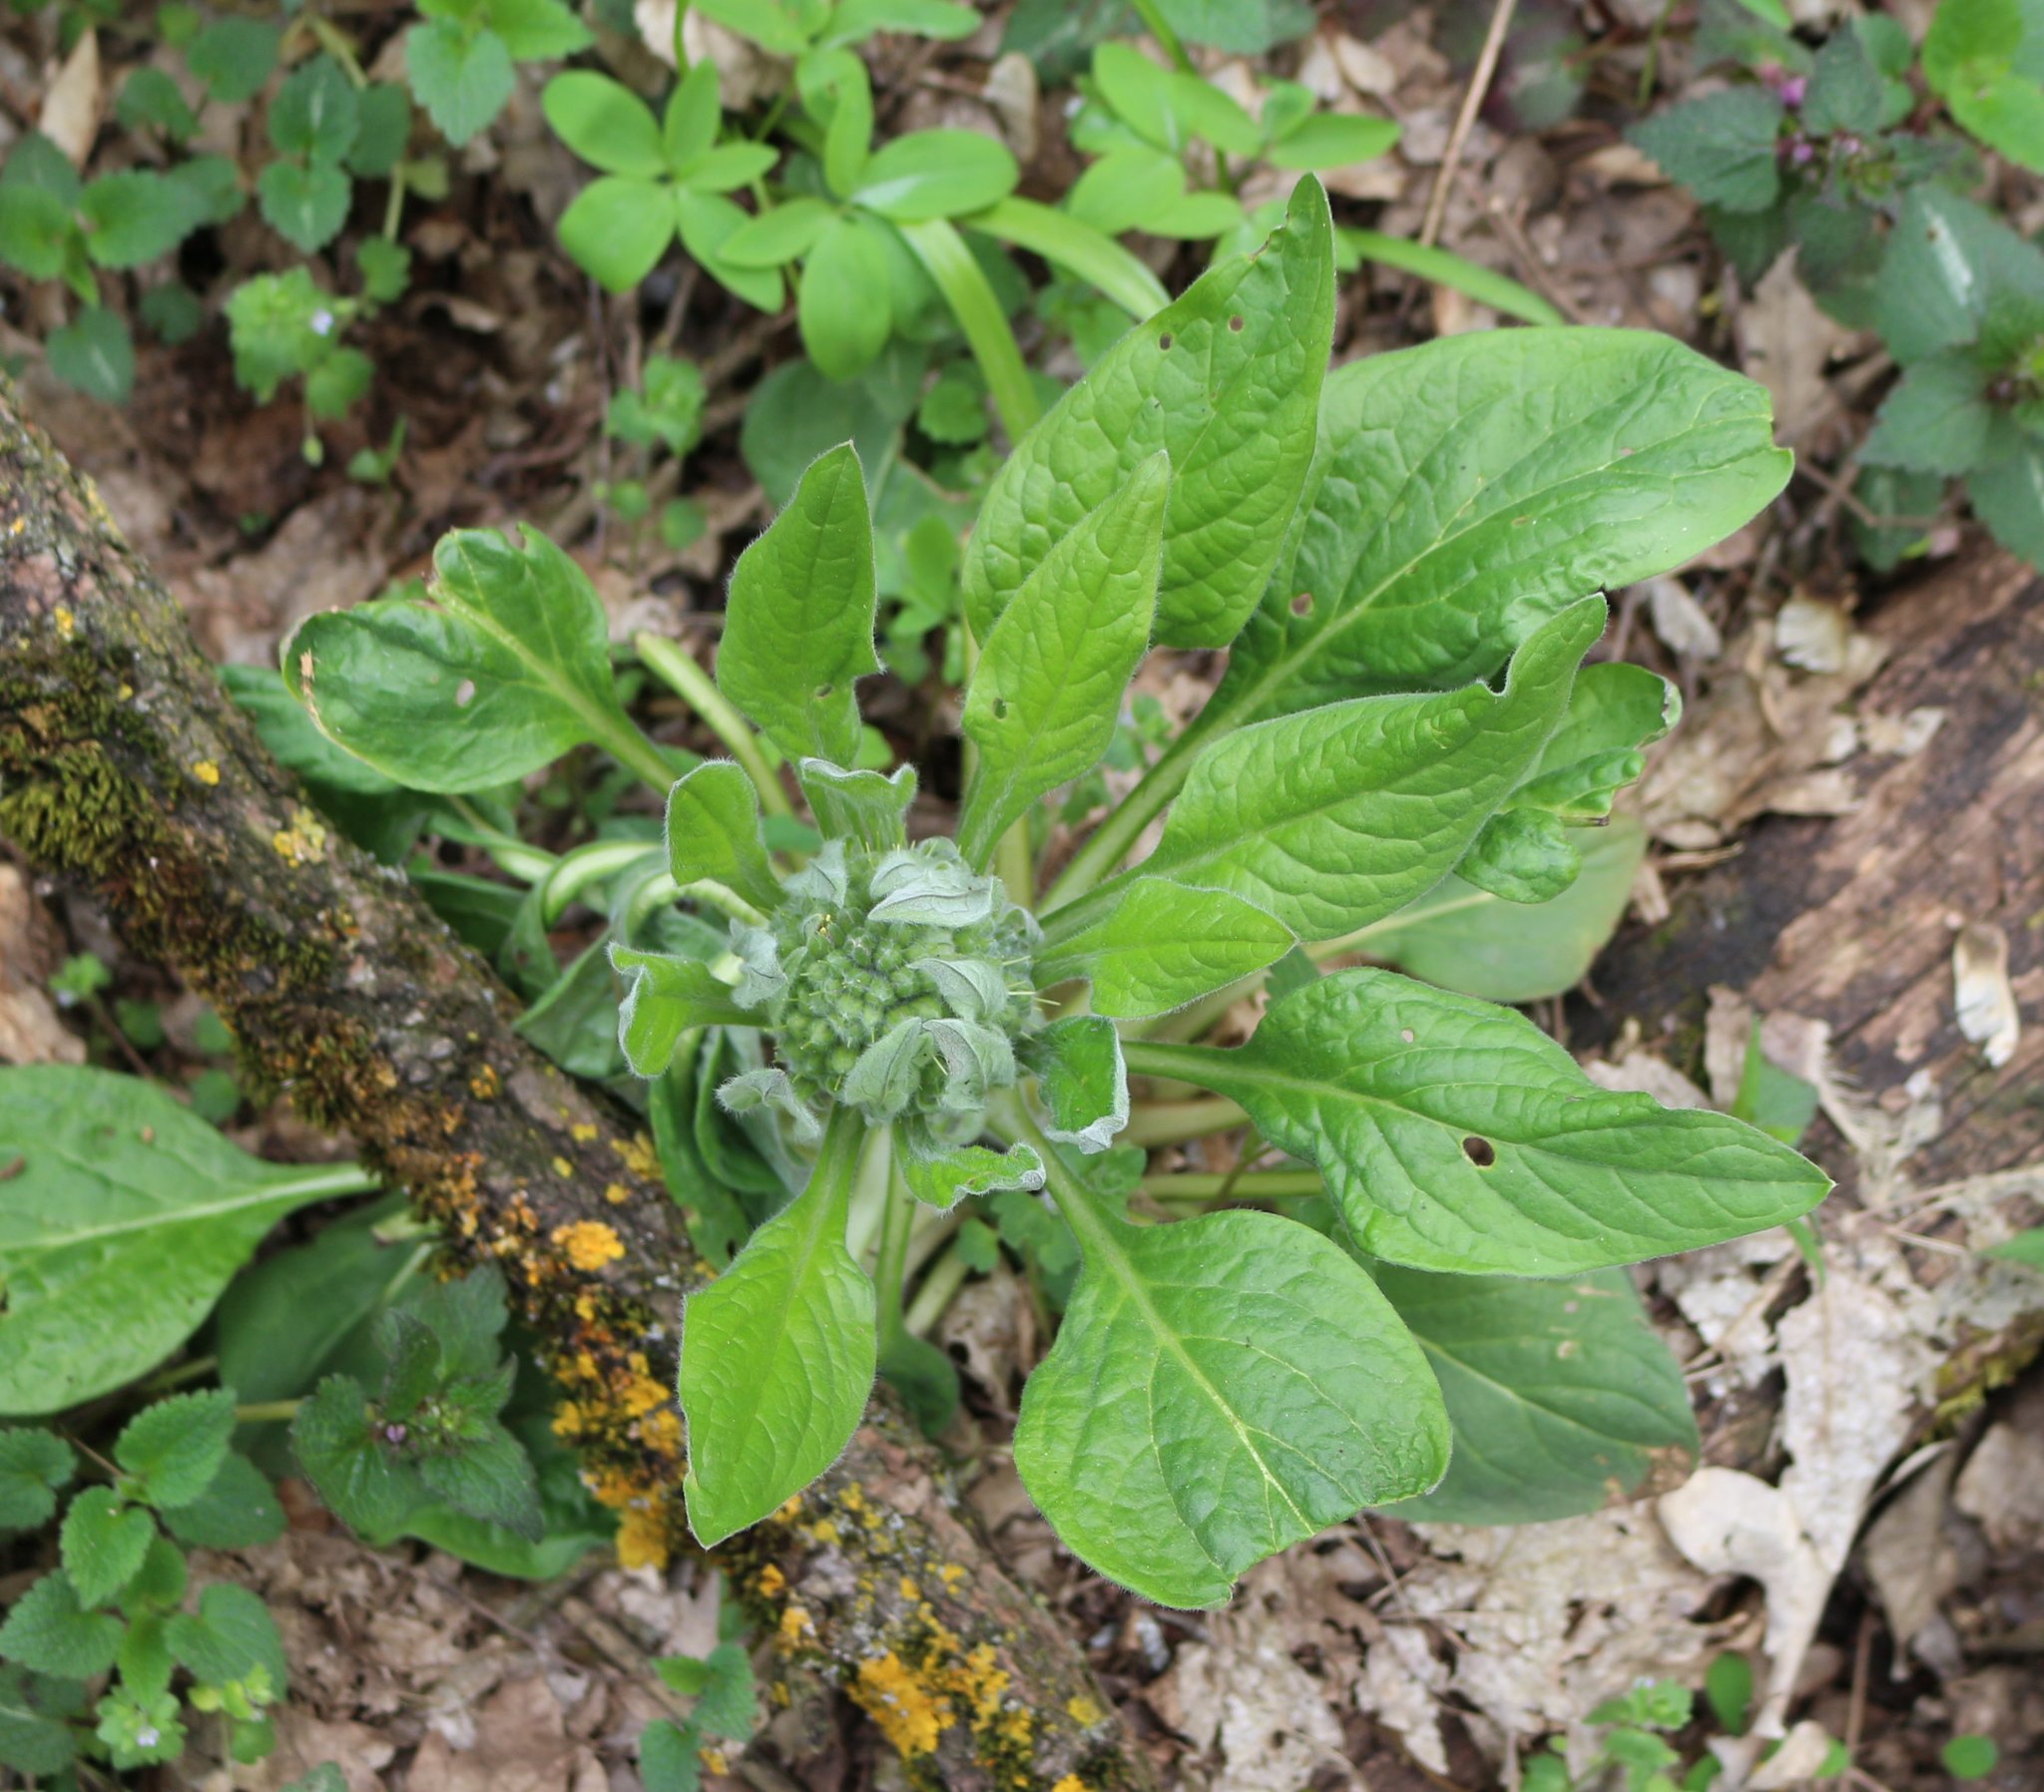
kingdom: Plantae
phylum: Tracheophyta
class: Magnoliopsida
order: Boraginales
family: Boraginaceae
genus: Solenanthus
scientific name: Solenanthus dubius
